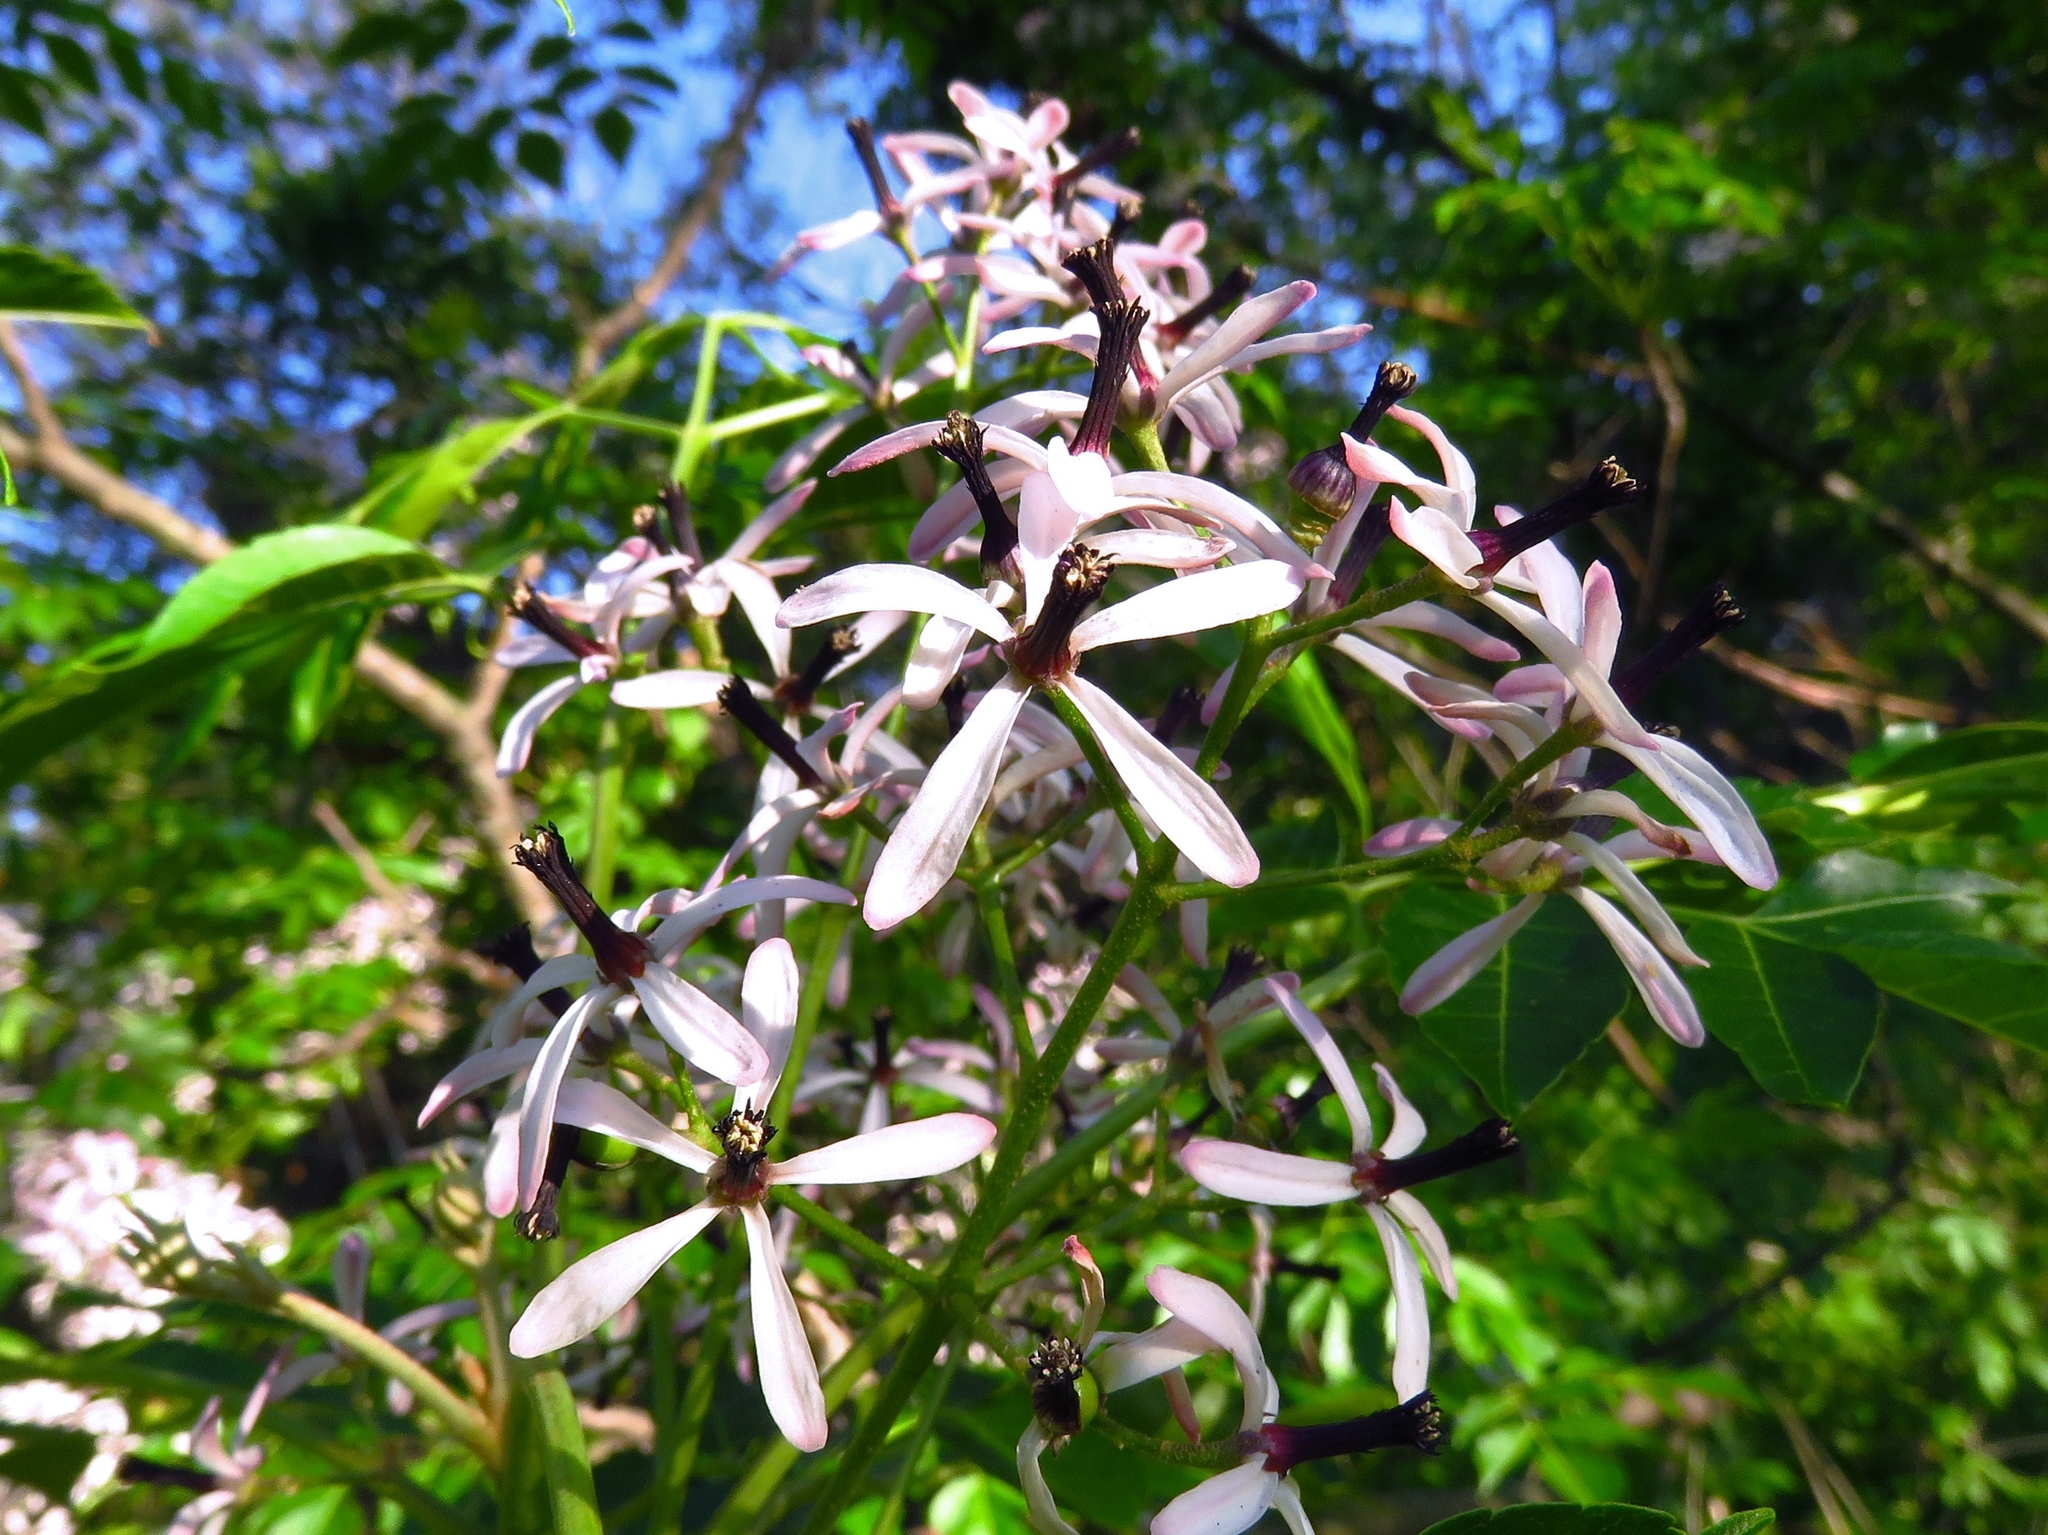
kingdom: Plantae
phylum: Tracheophyta
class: Magnoliopsida
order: Sapindales
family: Meliaceae
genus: Melia
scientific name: Melia azedarach
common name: Chinaberrytree
